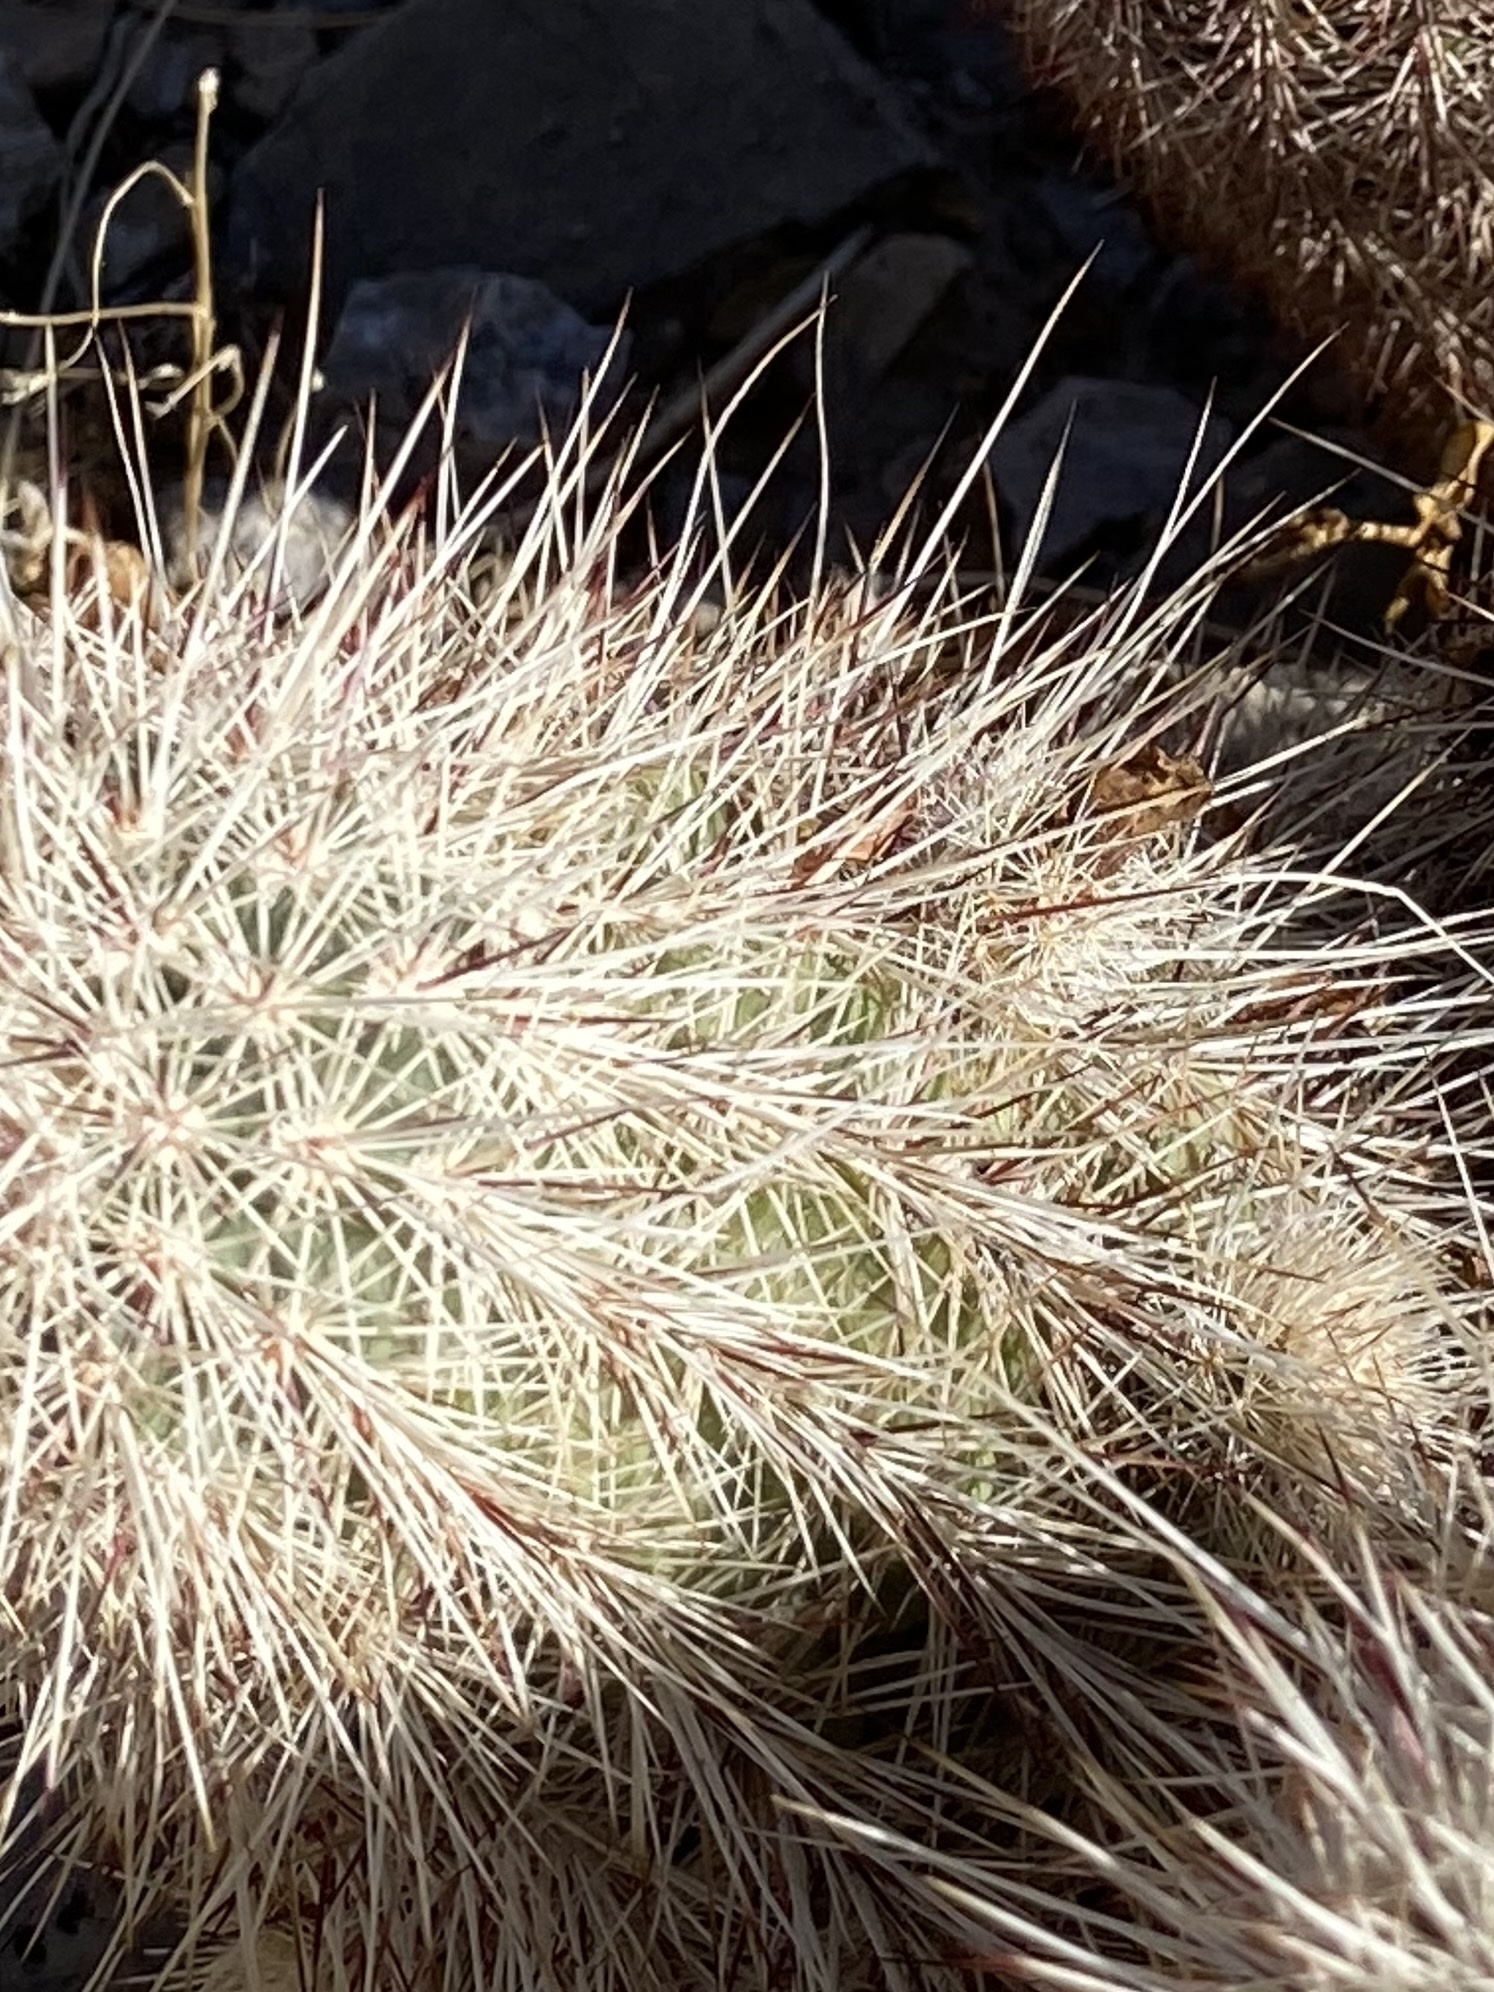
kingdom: Plantae
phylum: Tracheophyta
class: Magnoliopsida
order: Caryophyllales
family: Cactaceae
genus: Echinocereus
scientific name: Echinocereus viridiflorus
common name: Nylon hedgehog cactus
